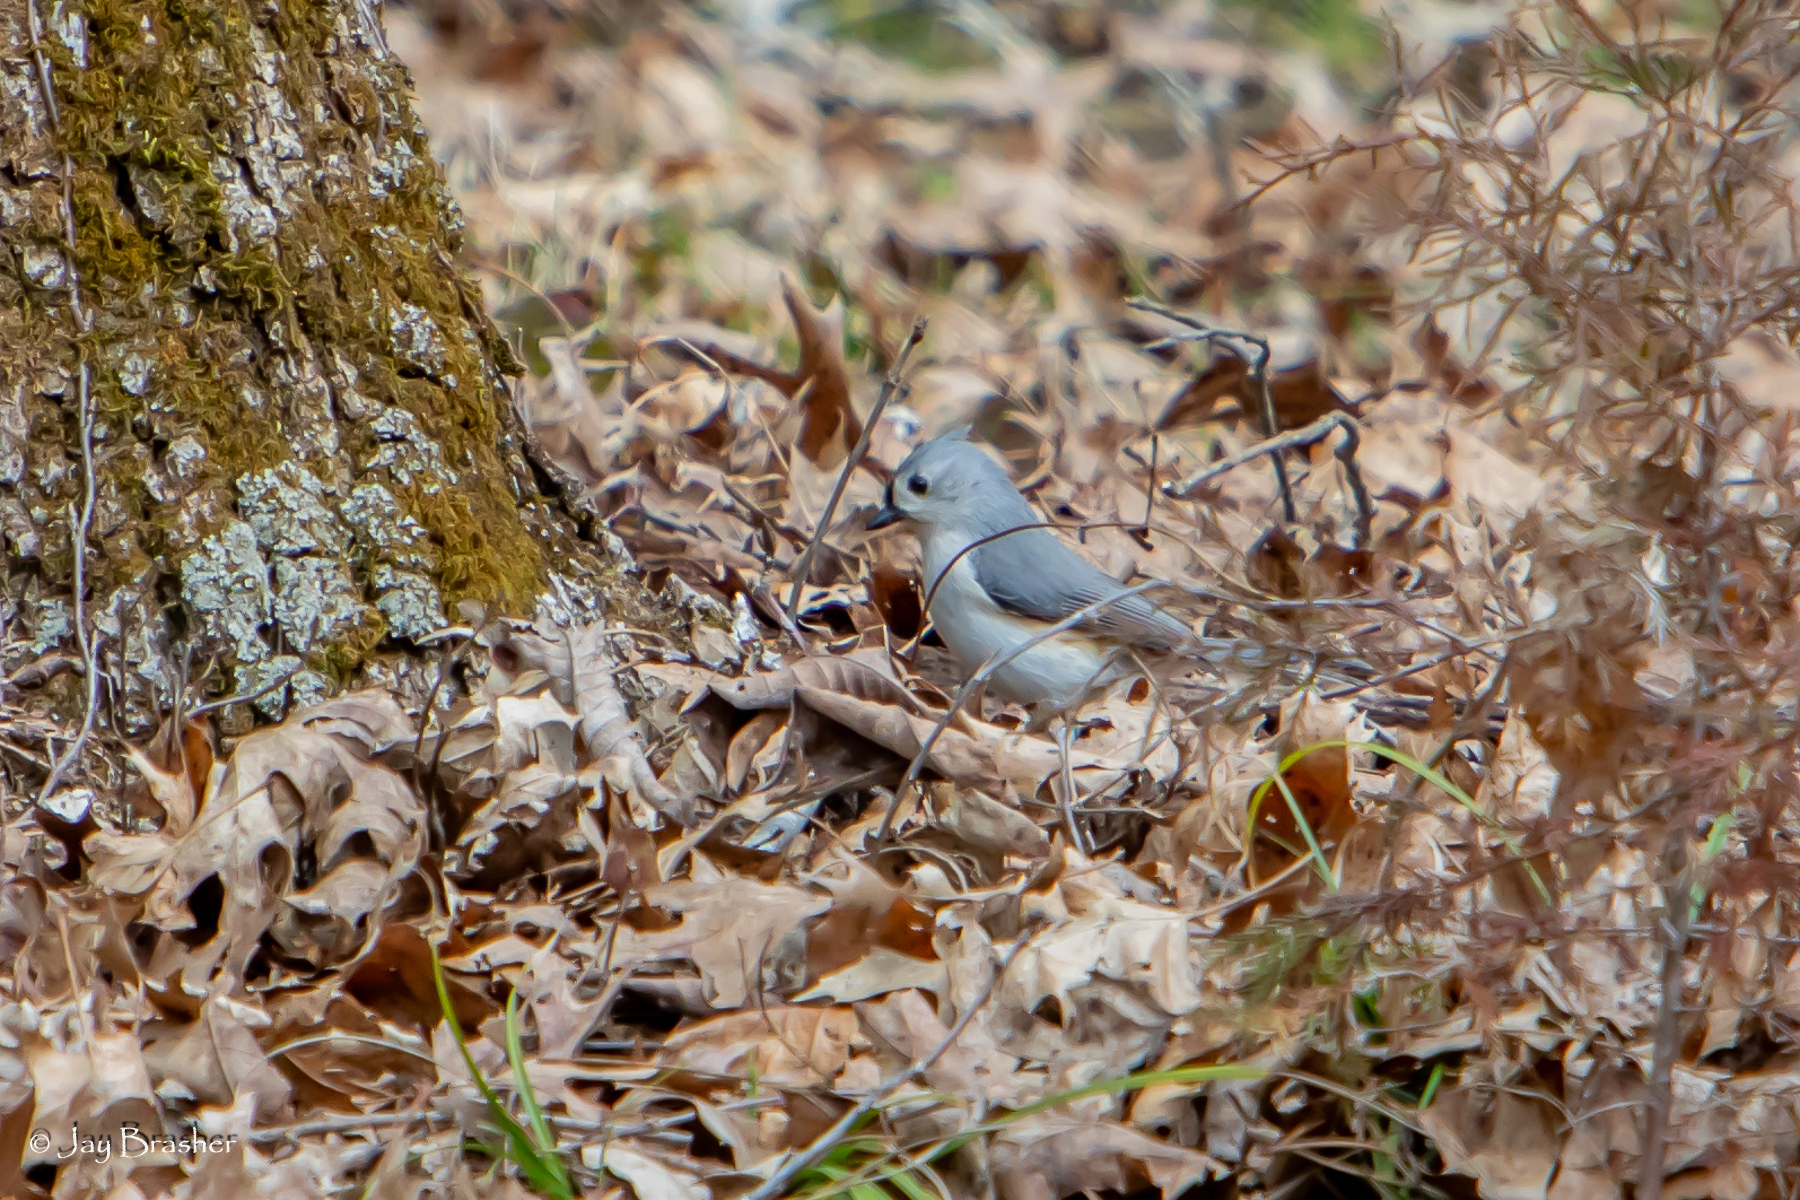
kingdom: Animalia
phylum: Chordata
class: Aves
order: Passeriformes
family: Paridae
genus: Baeolophus
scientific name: Baeolophus bicolor
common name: Tufted titmouse
